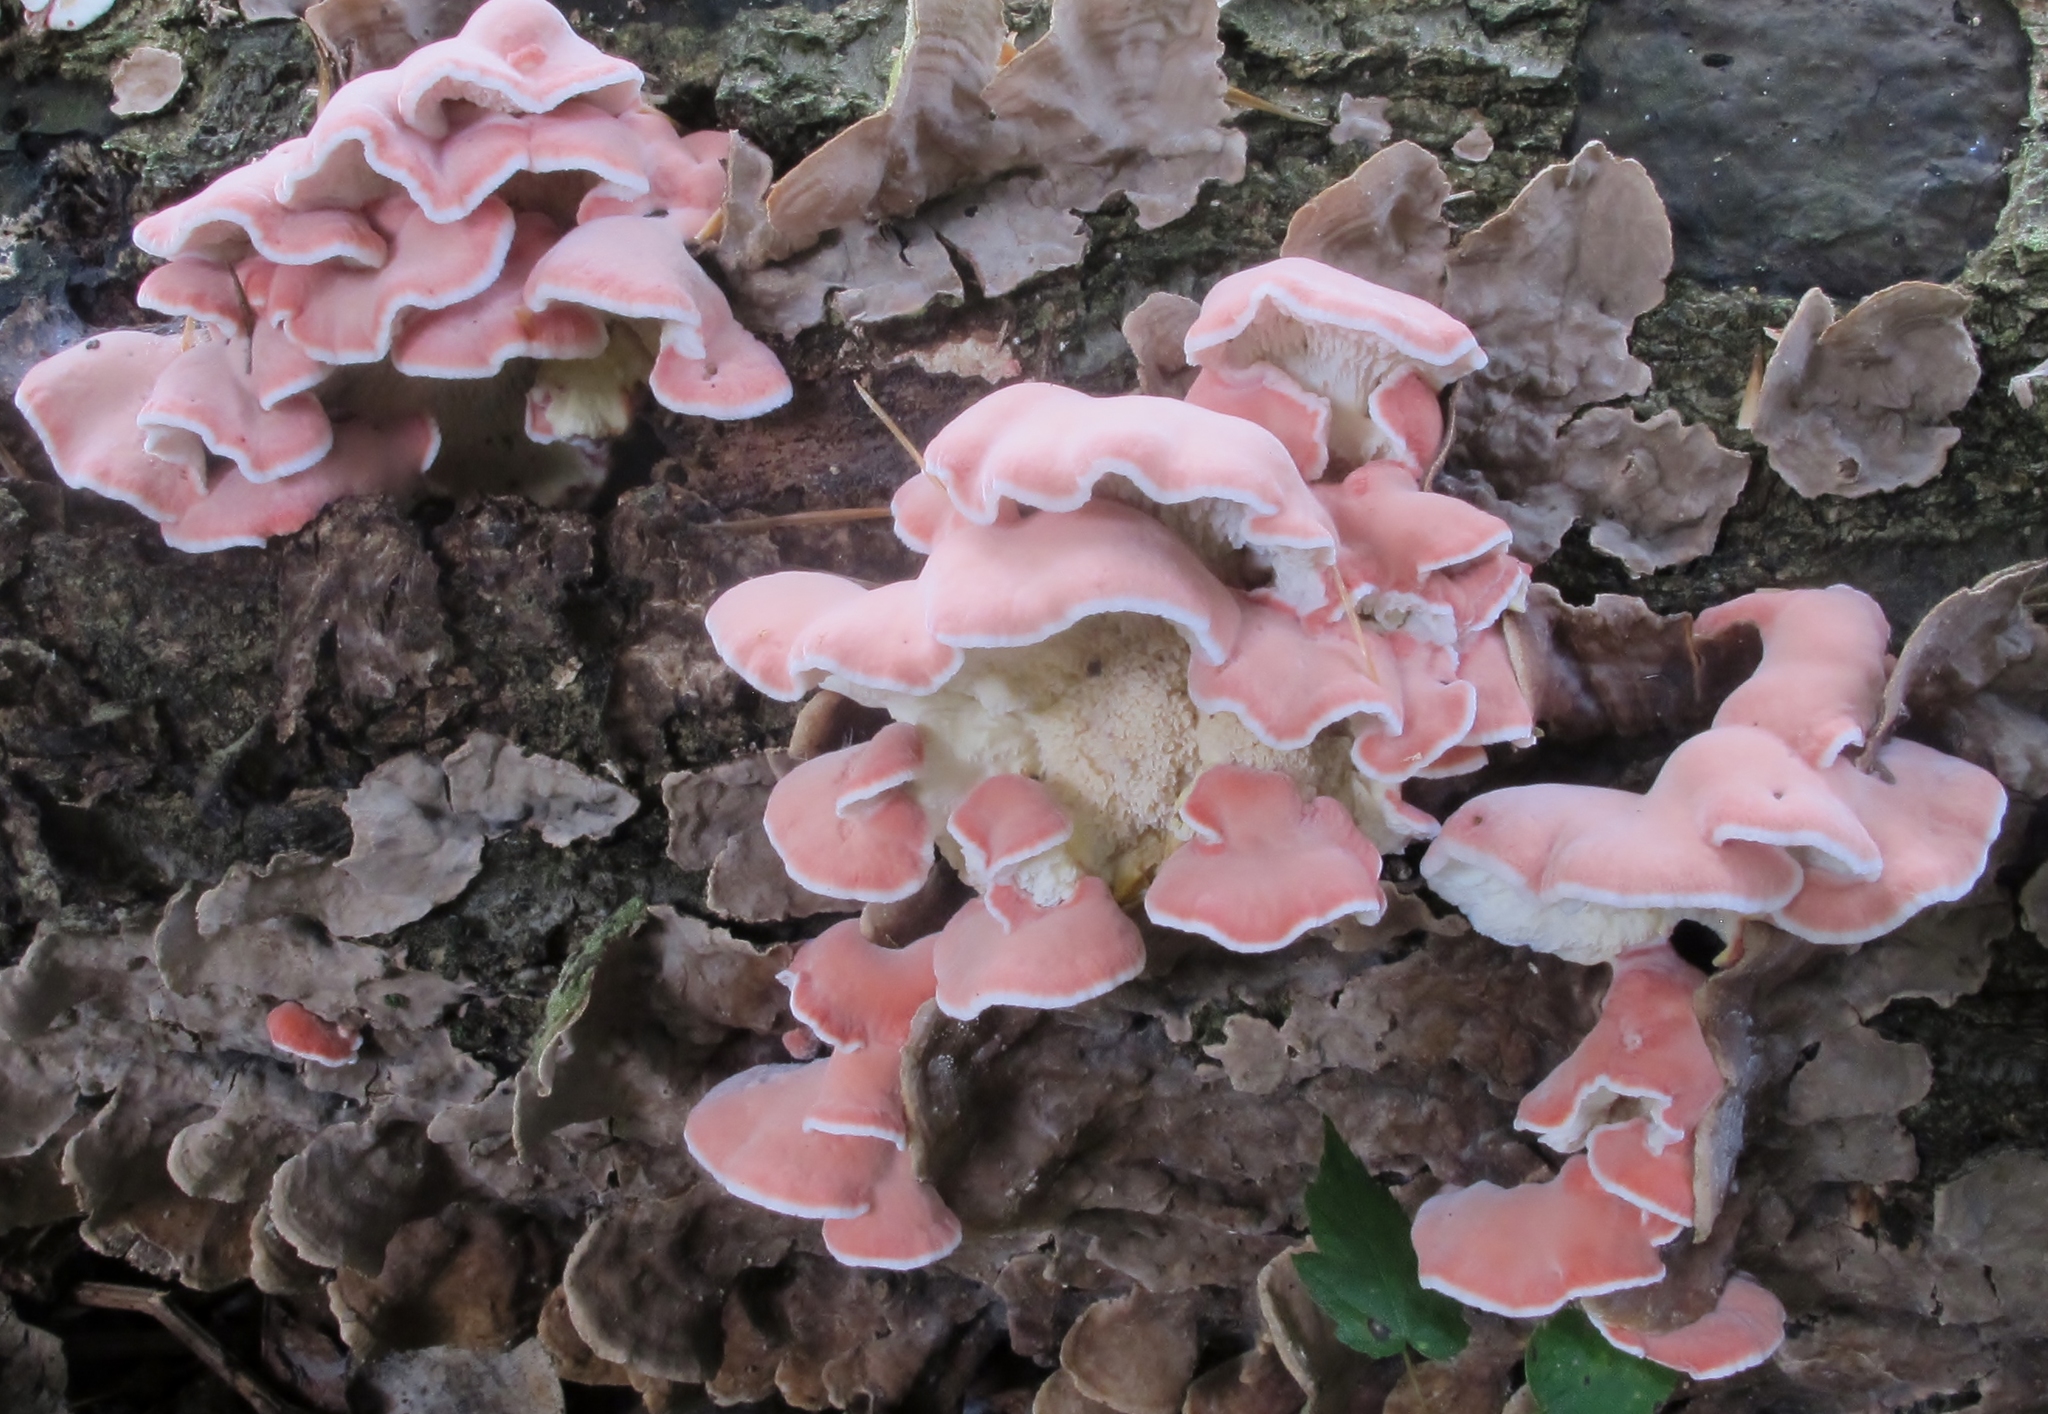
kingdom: Fungi
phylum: Basidiomycota
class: Agaricomycetes
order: Polyporales
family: Irpicaceae
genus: Byssomerulius
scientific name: Byssomerulius incarnatus
